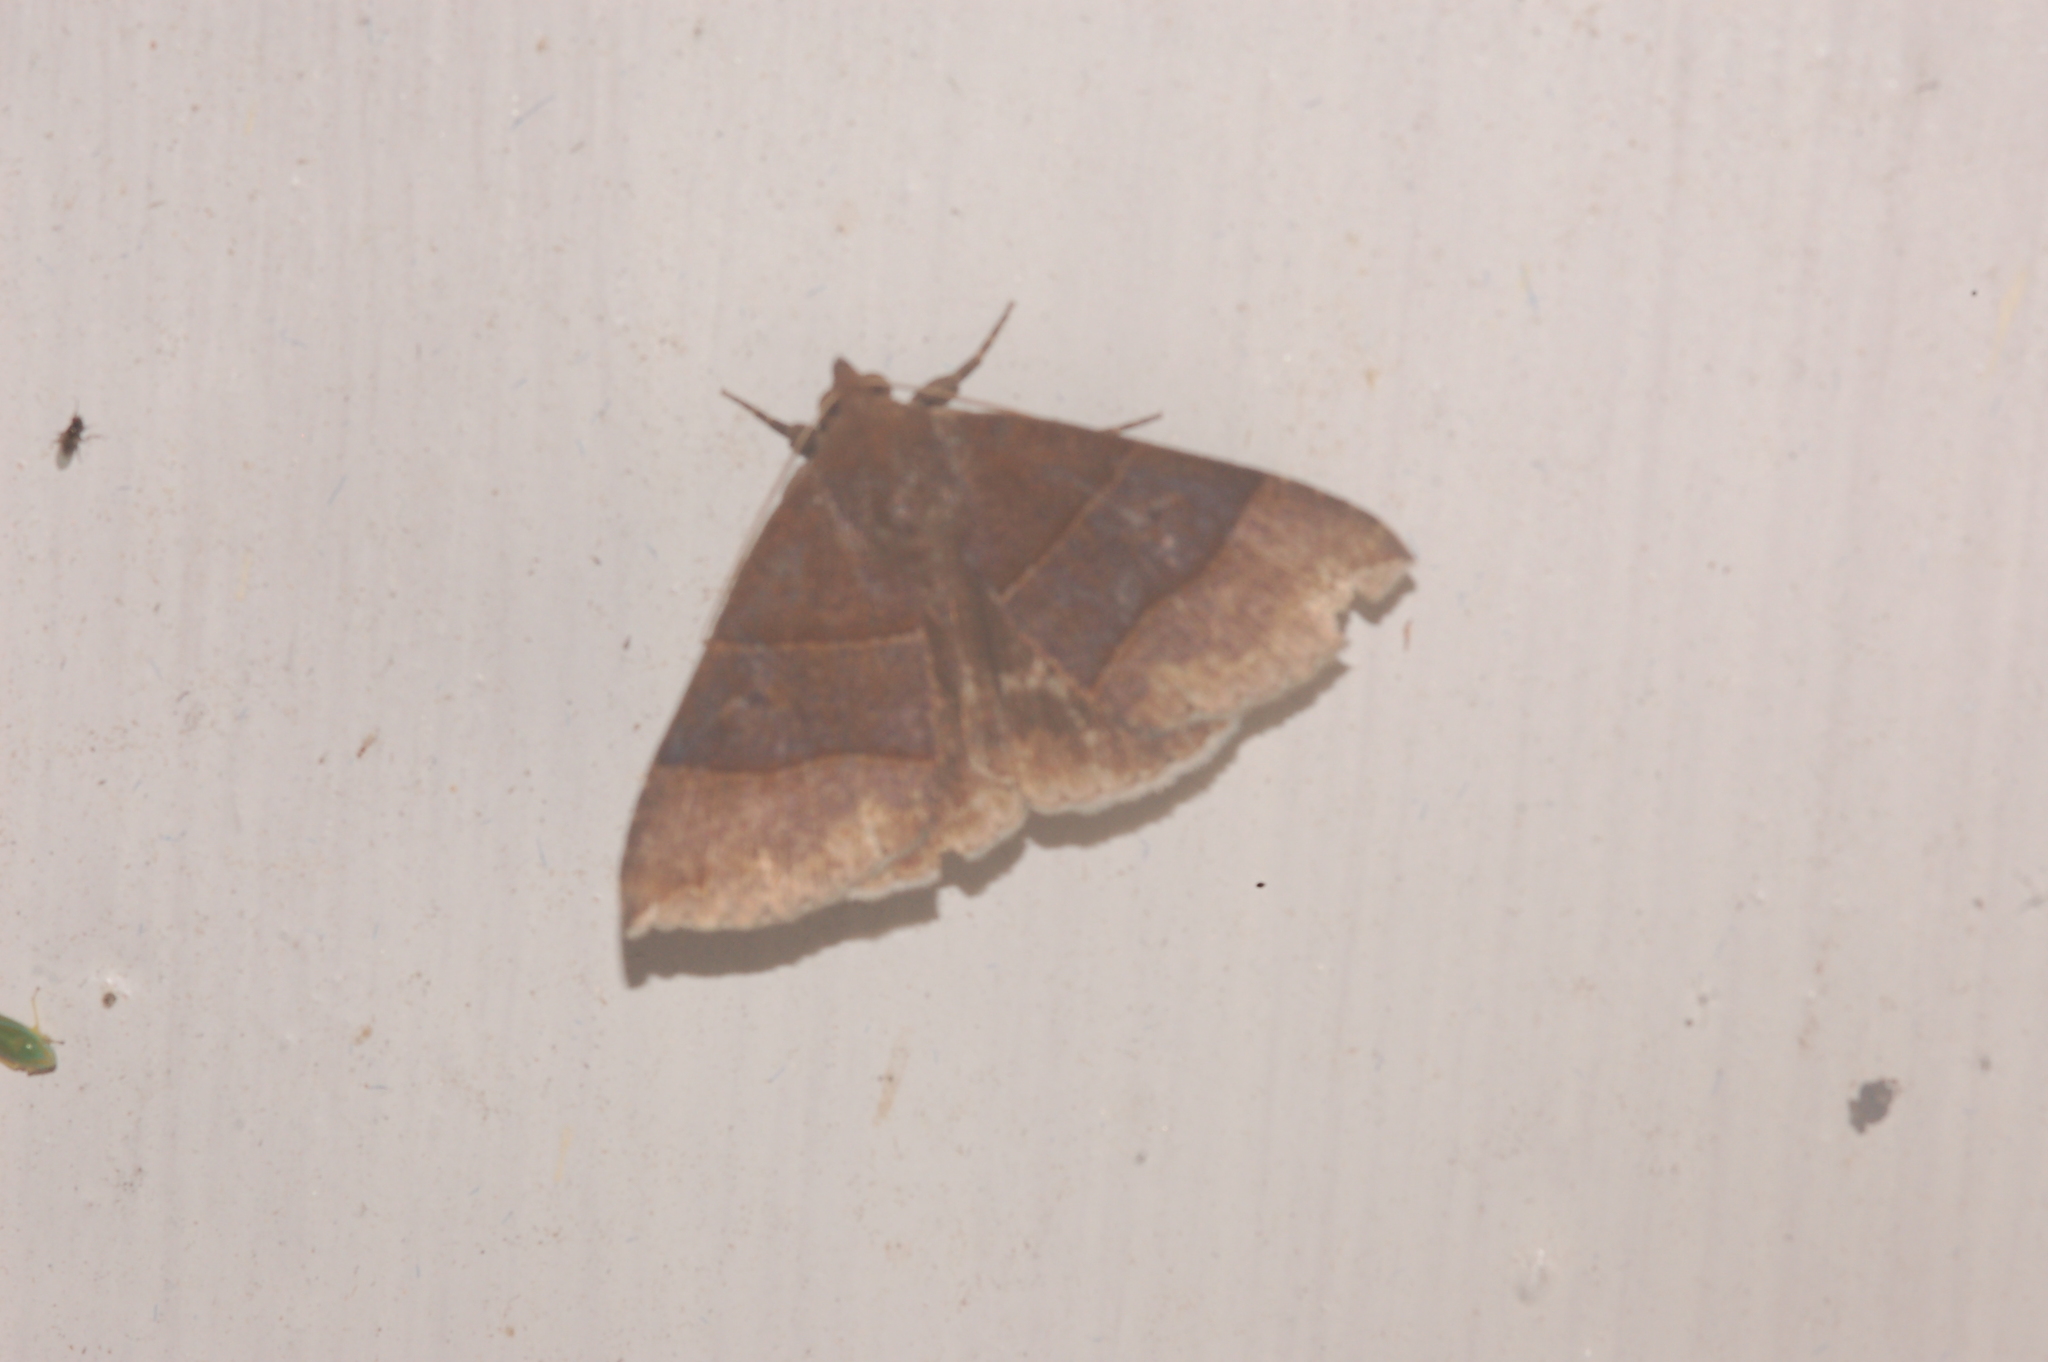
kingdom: Animalia
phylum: Arthropoda
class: Insecta
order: Lepidoptera
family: Erebidae
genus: Parallelia
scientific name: Parallelia bistriaris
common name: Maple looper moth
